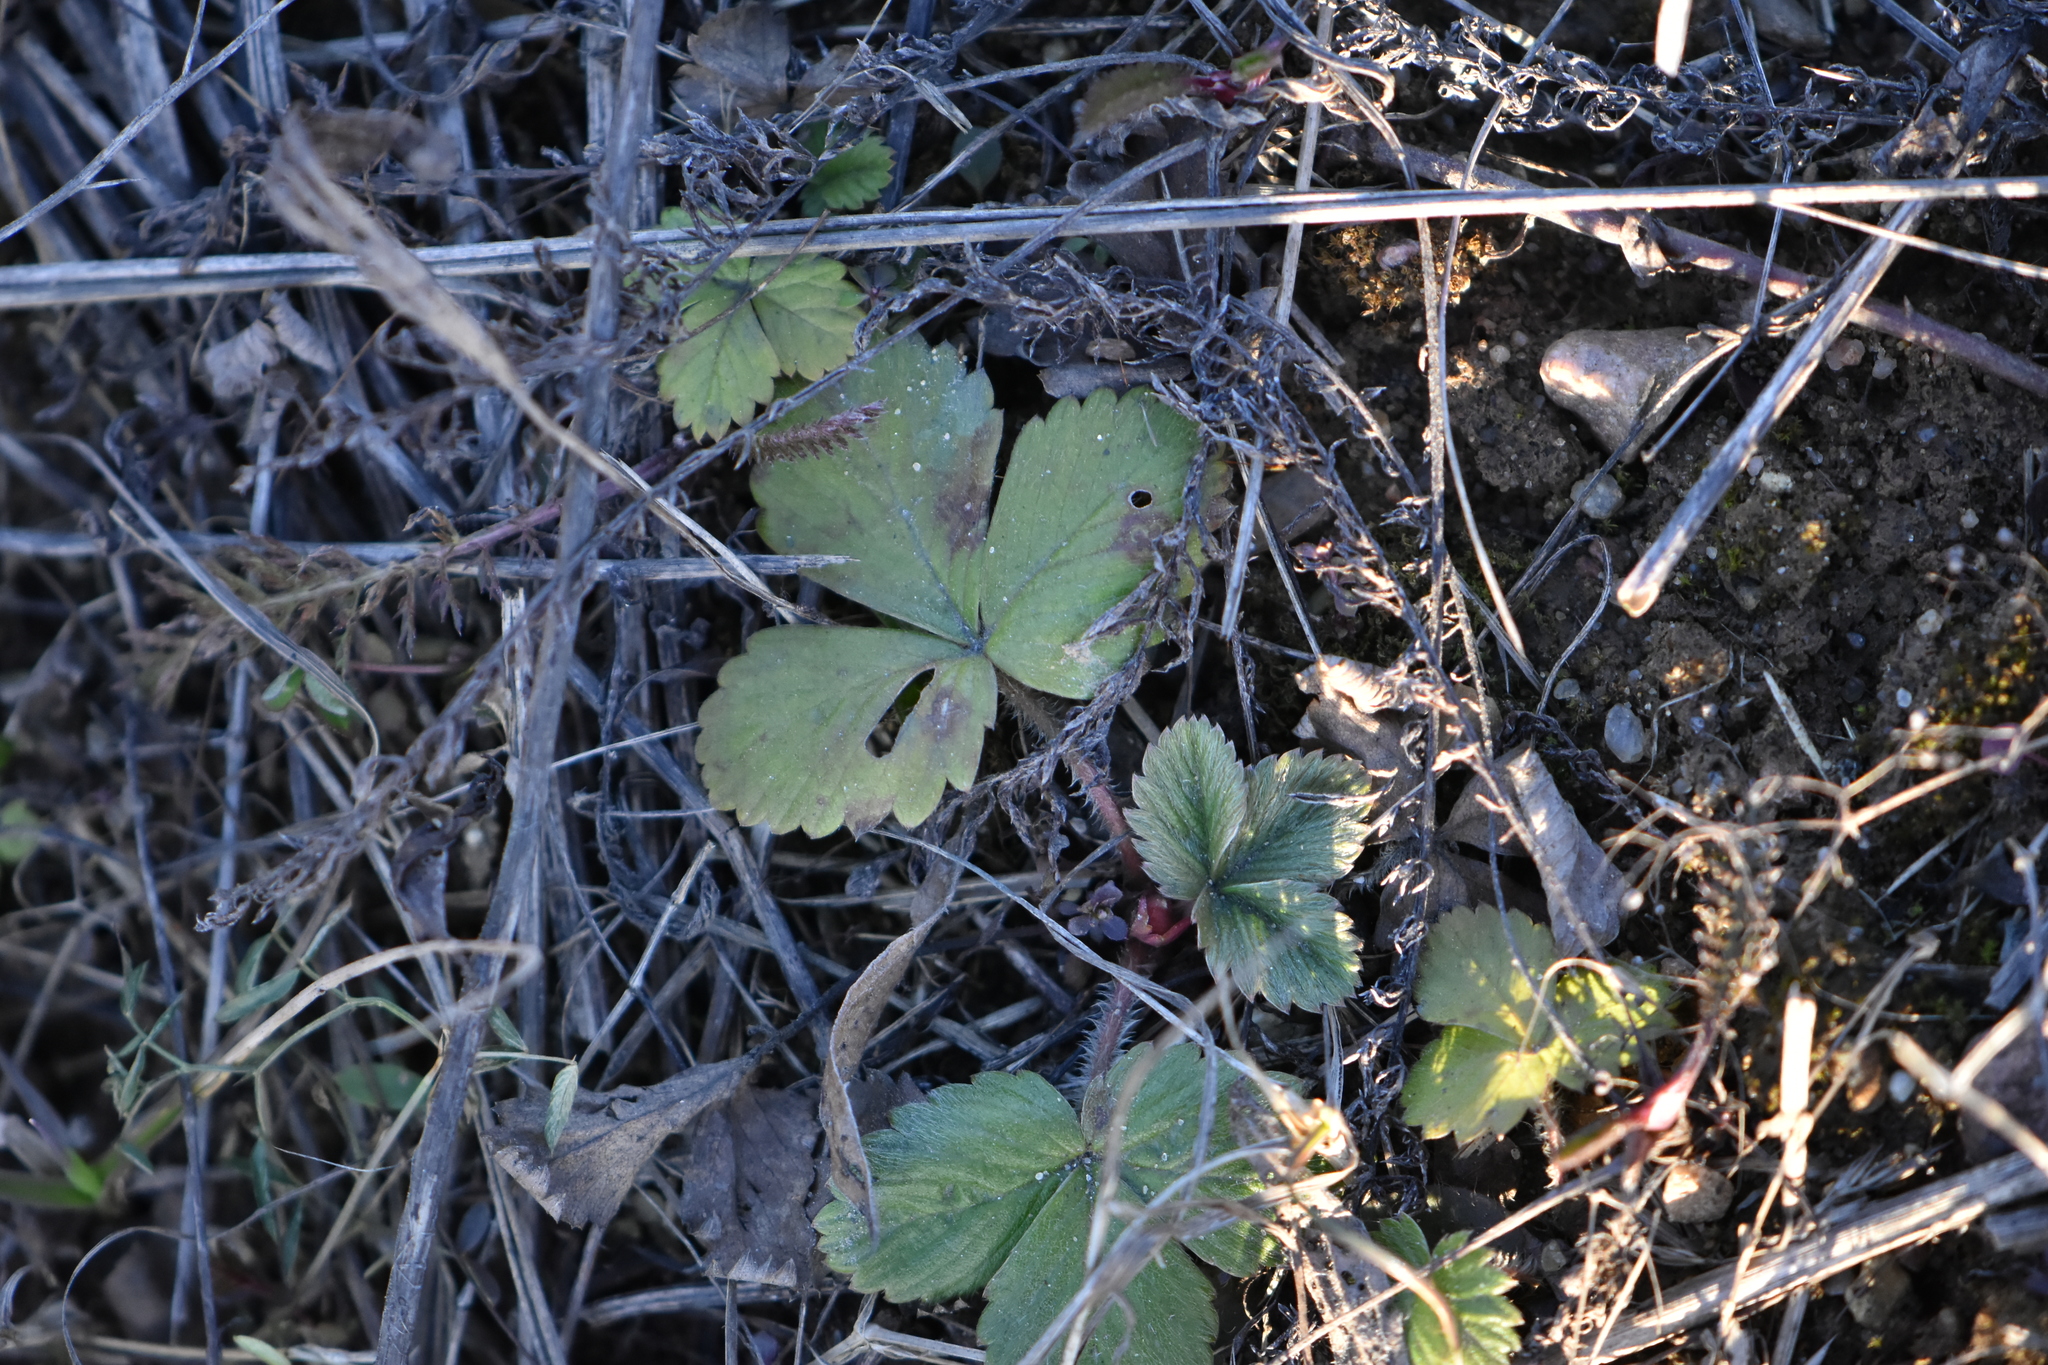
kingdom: Plantae
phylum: Tracheophyta
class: Magnoliopsida
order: Rosales
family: Rosaceae
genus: Fragaria
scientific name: Fragaria vesca
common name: Wild strawberry
